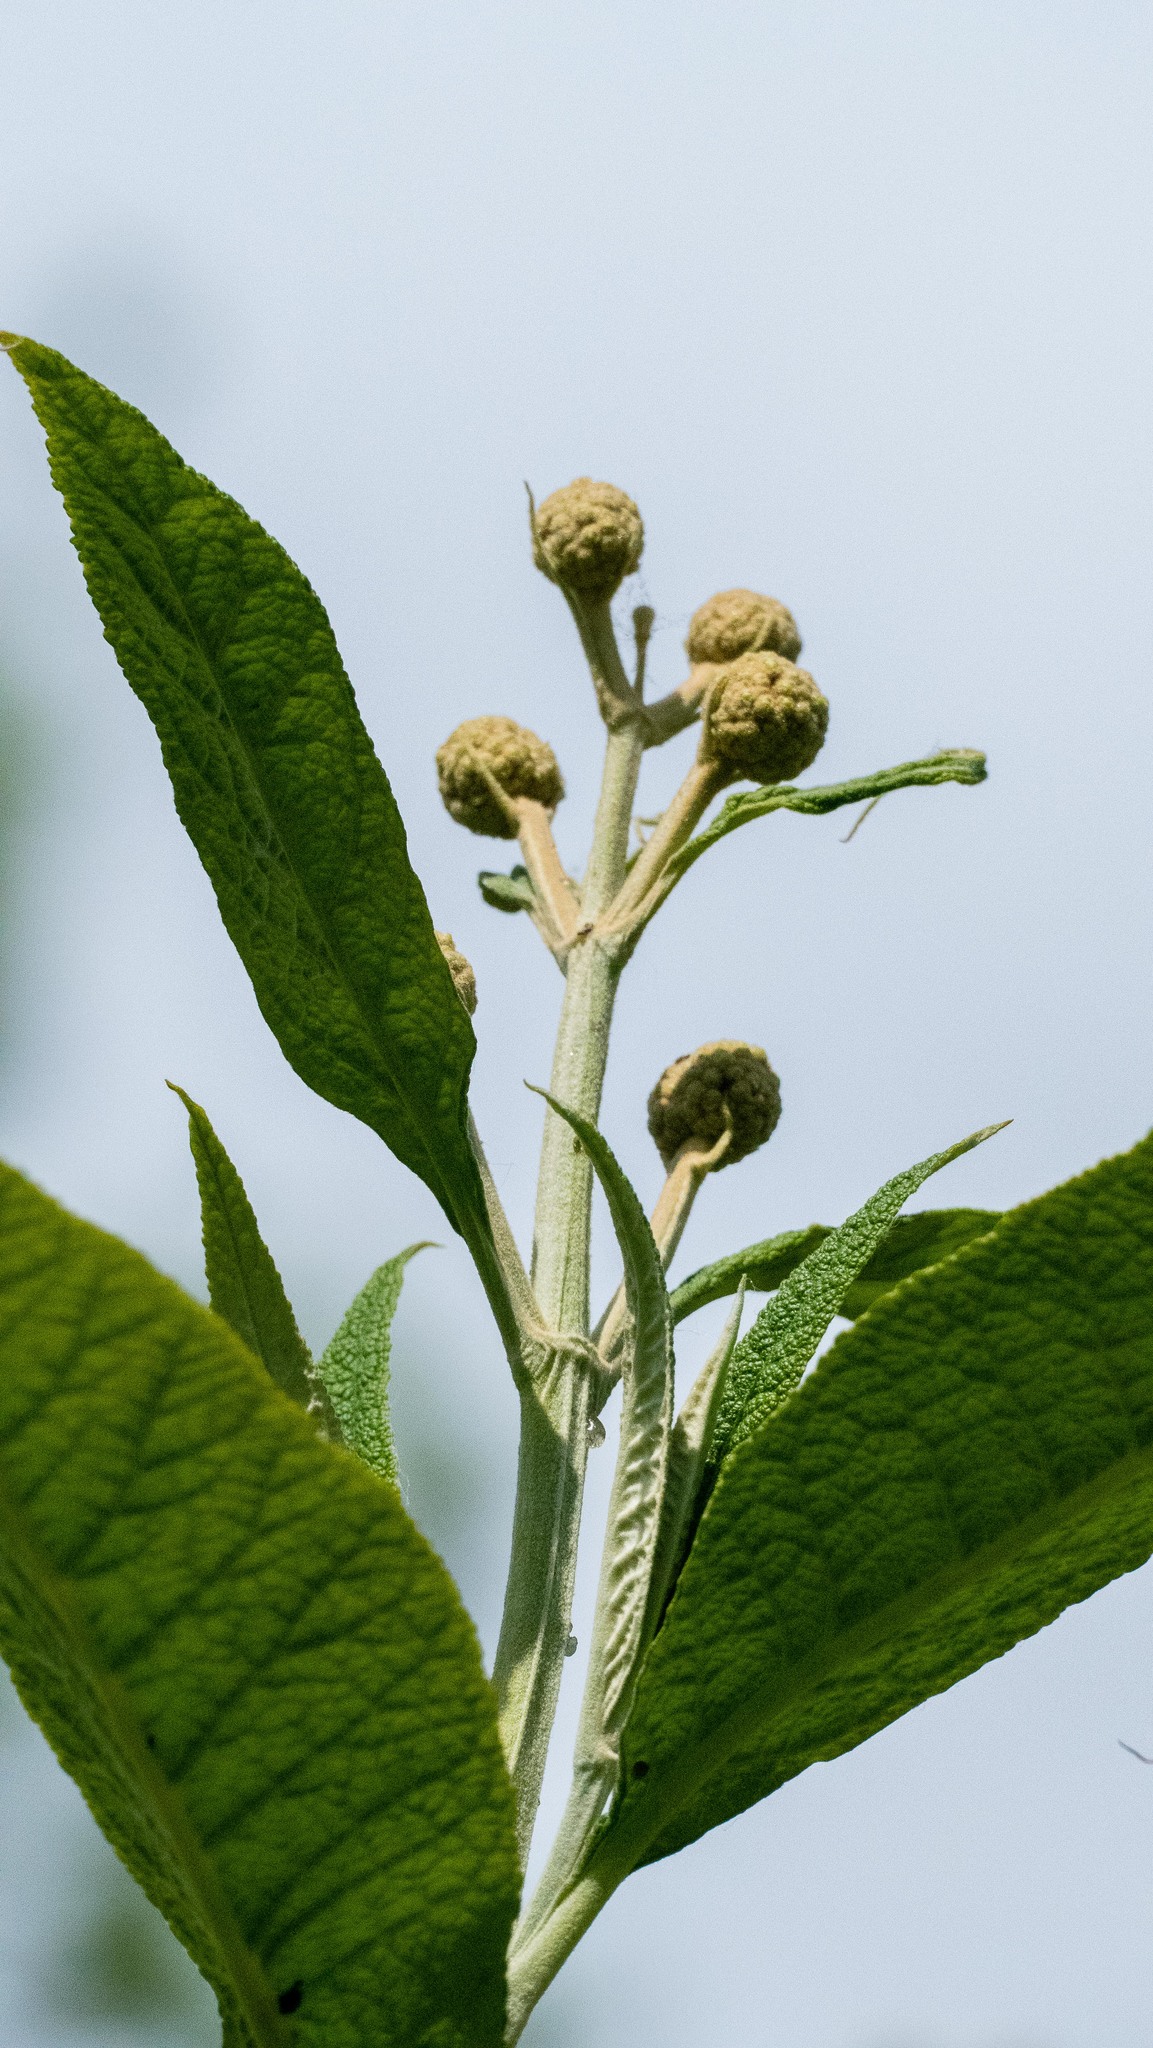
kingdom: Plantae
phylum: Tracheophyta
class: Magnoliopsida
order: Lamiales
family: Scrophulariaceae
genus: Buddleja
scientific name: Buddleja davidii
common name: Butterfly-bush
